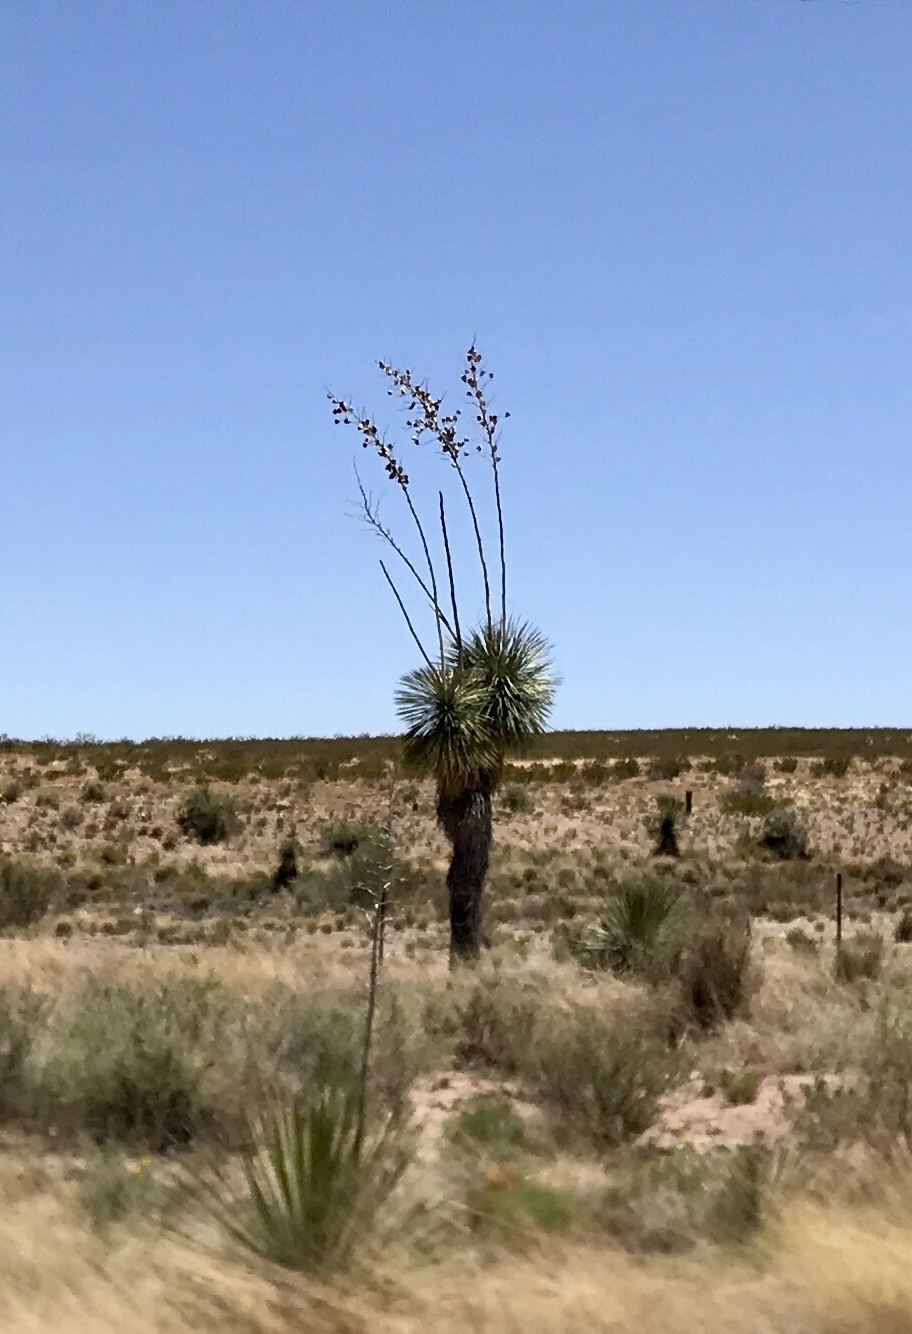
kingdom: Plantae
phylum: Tracheophyta
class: Liliopsida
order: Asparagales
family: Asparagaceae
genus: Yucca
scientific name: Yucca elata
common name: Palmella
